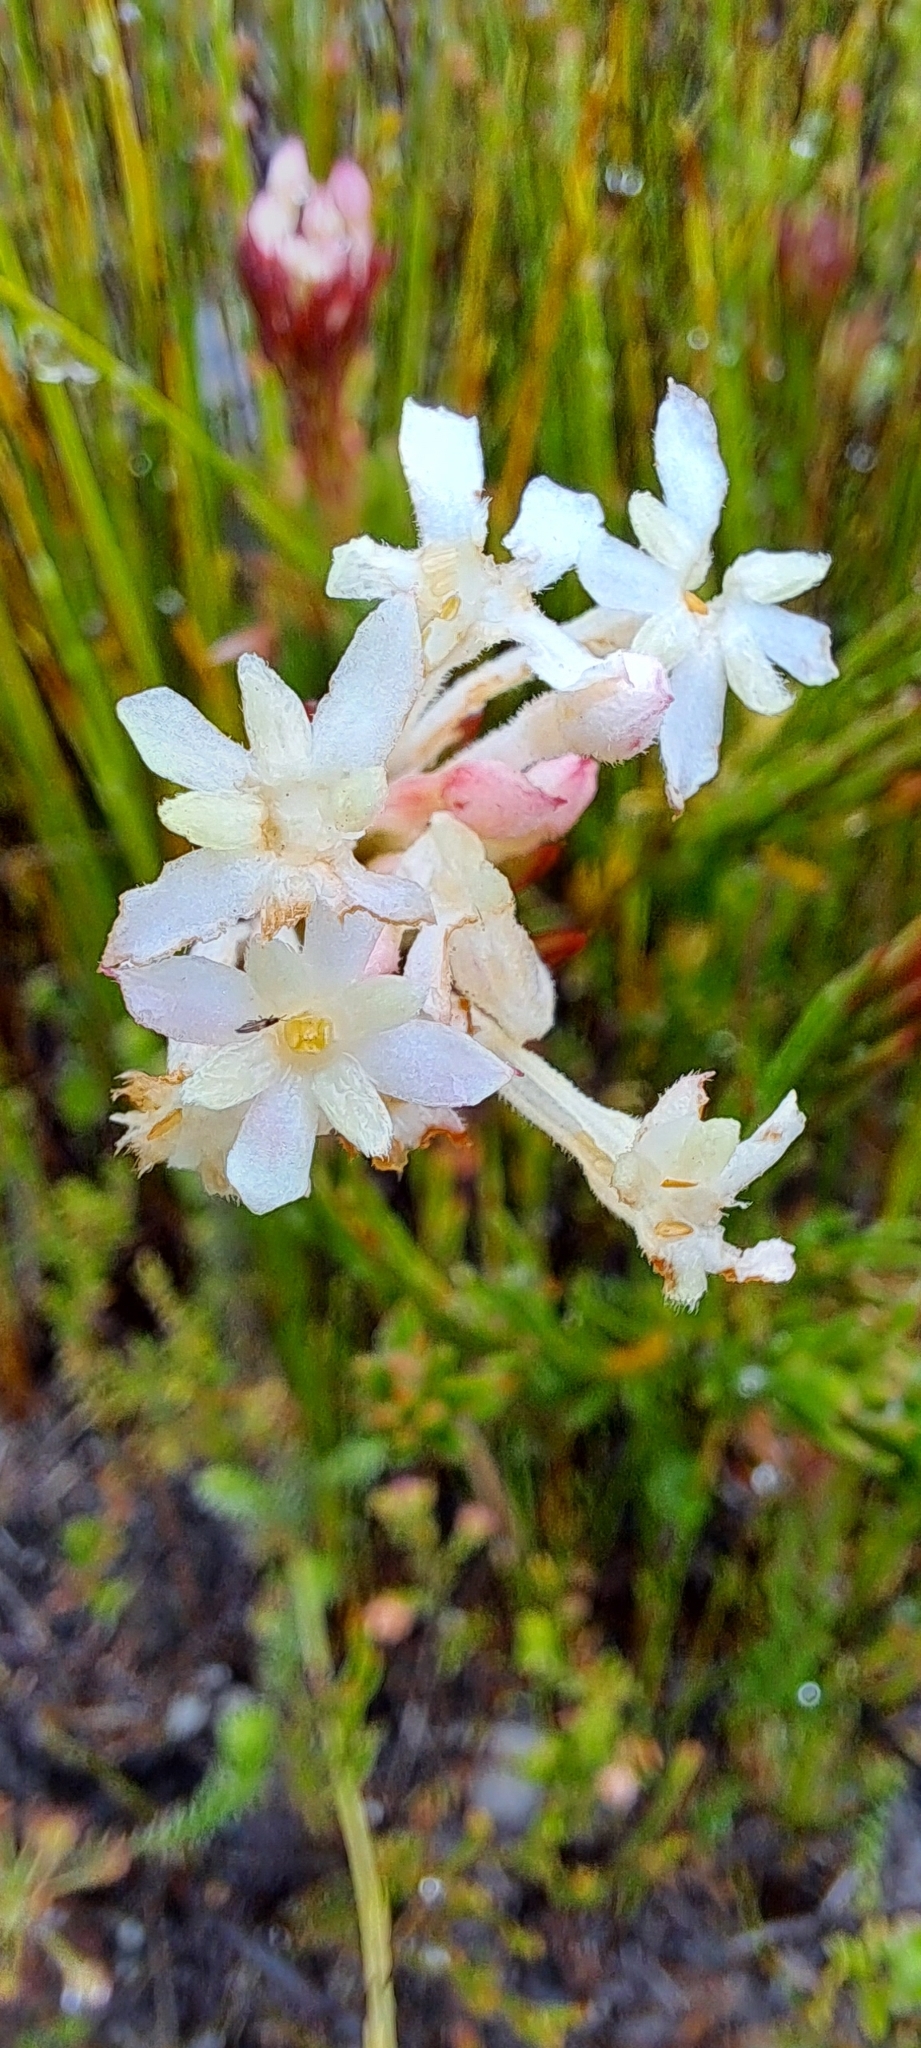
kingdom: Plantae
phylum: Tracheophyta
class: Magnoliopsida
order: Malvales
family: Thymelaeaceae
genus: Gnidia
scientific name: Gnidia pinifolia
